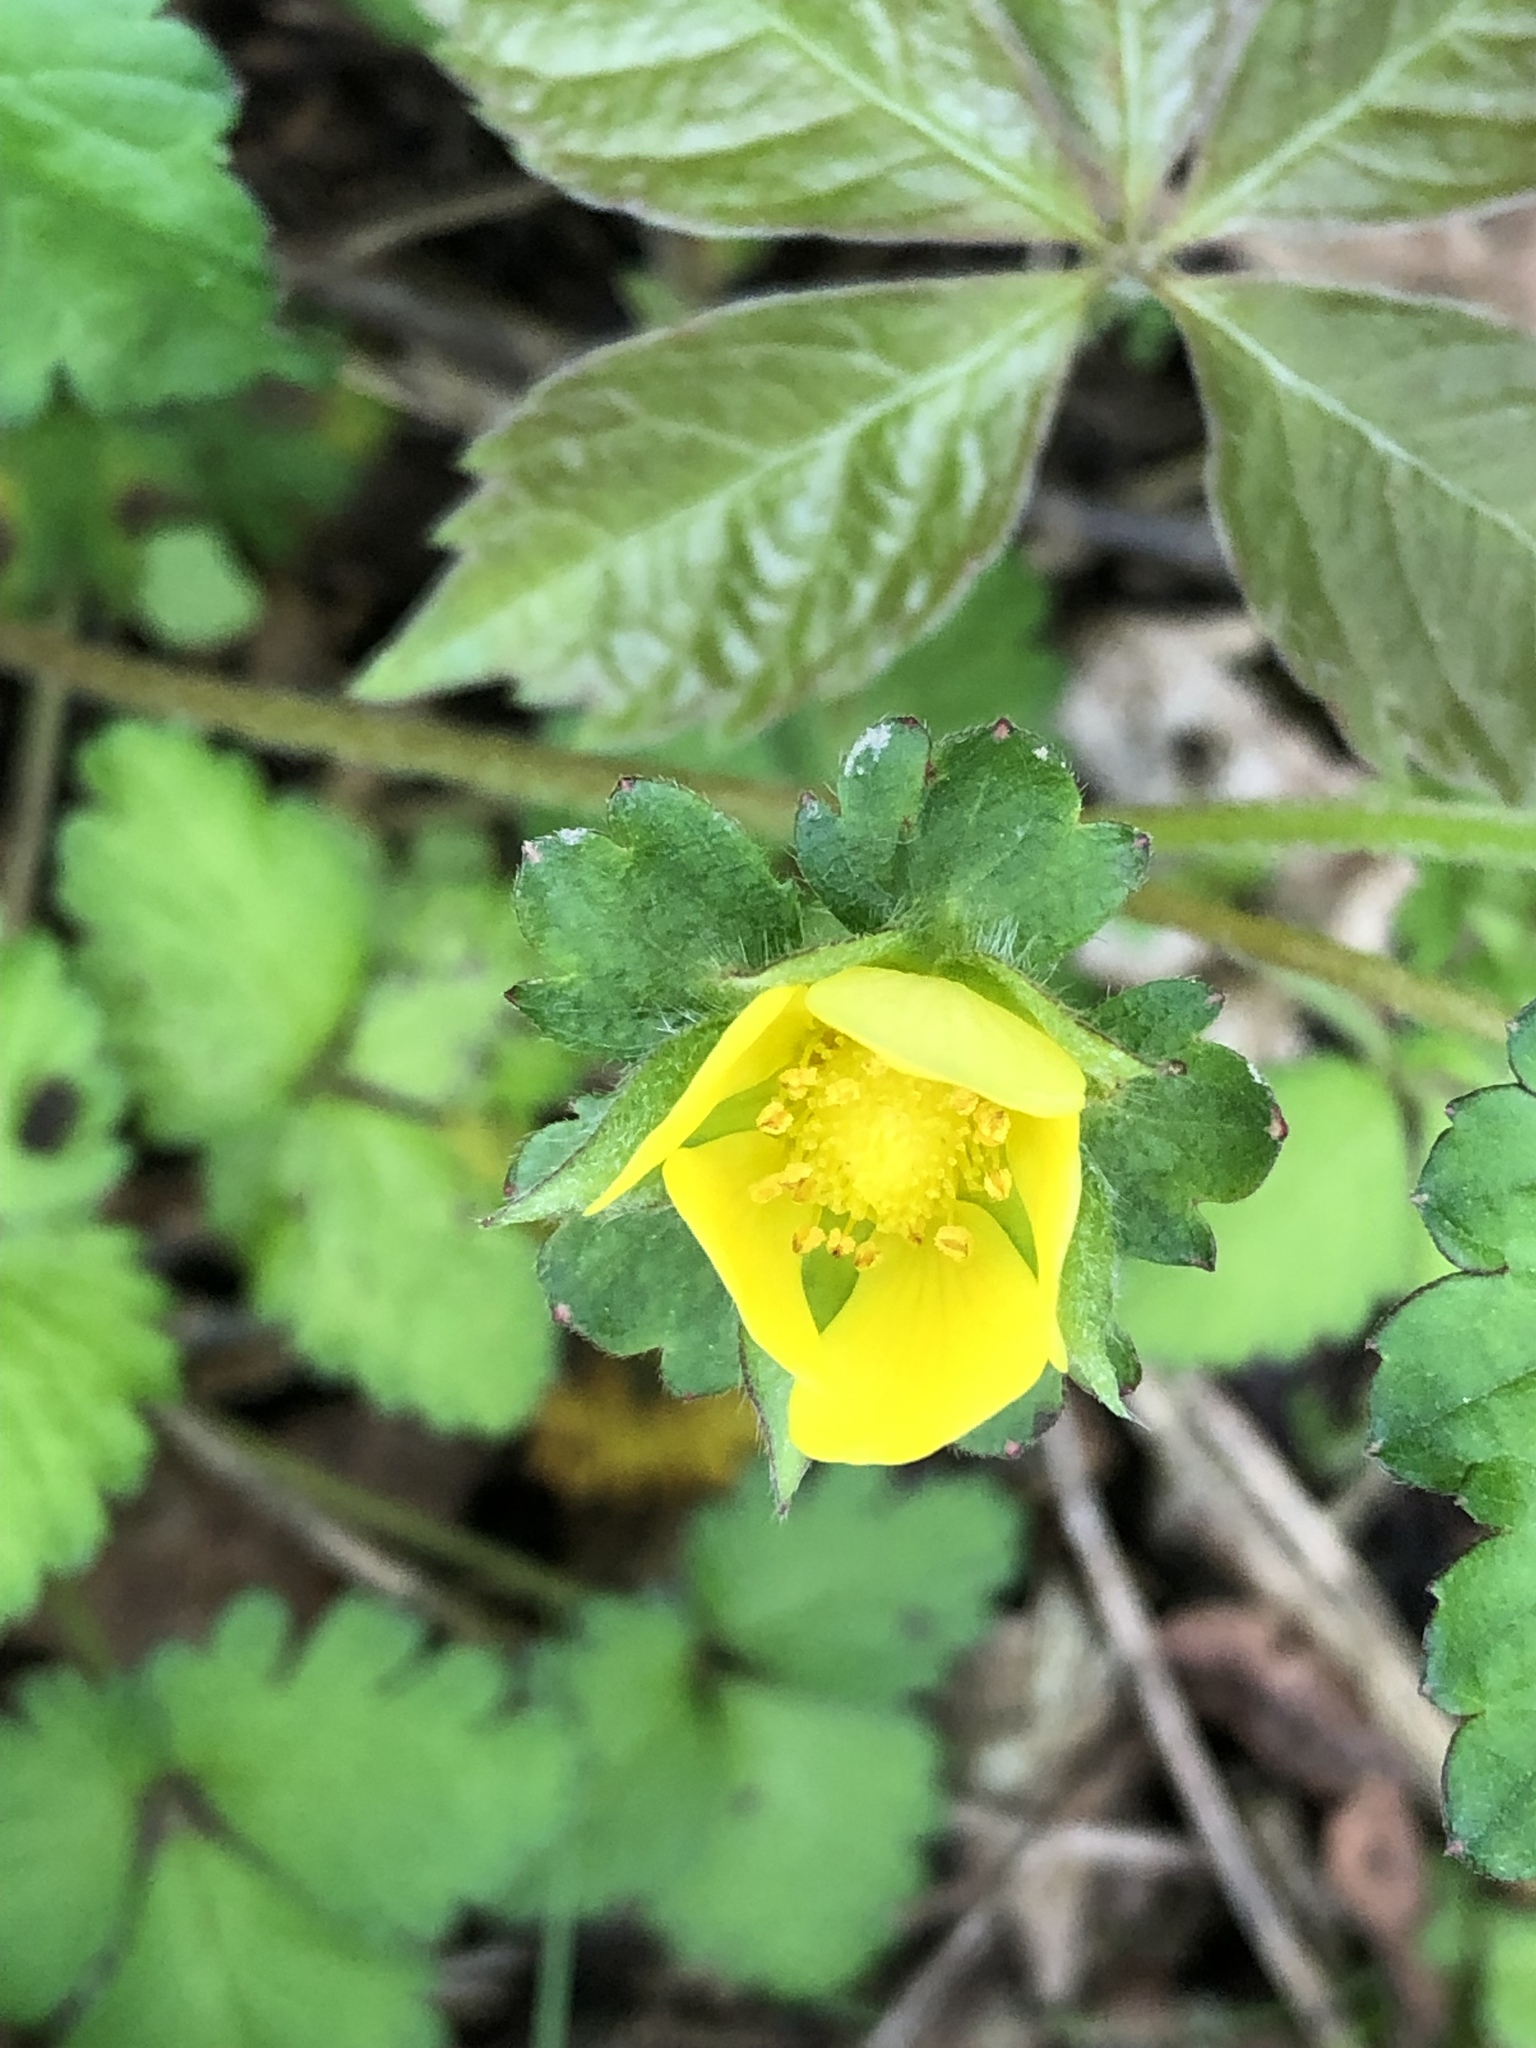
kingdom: Plantae
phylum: Tracheophyta
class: Magnoliopsida
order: Rosales
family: Rosaceae
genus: Potentilla
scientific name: Potentilla indica
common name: Yellow-flowered strawberry
